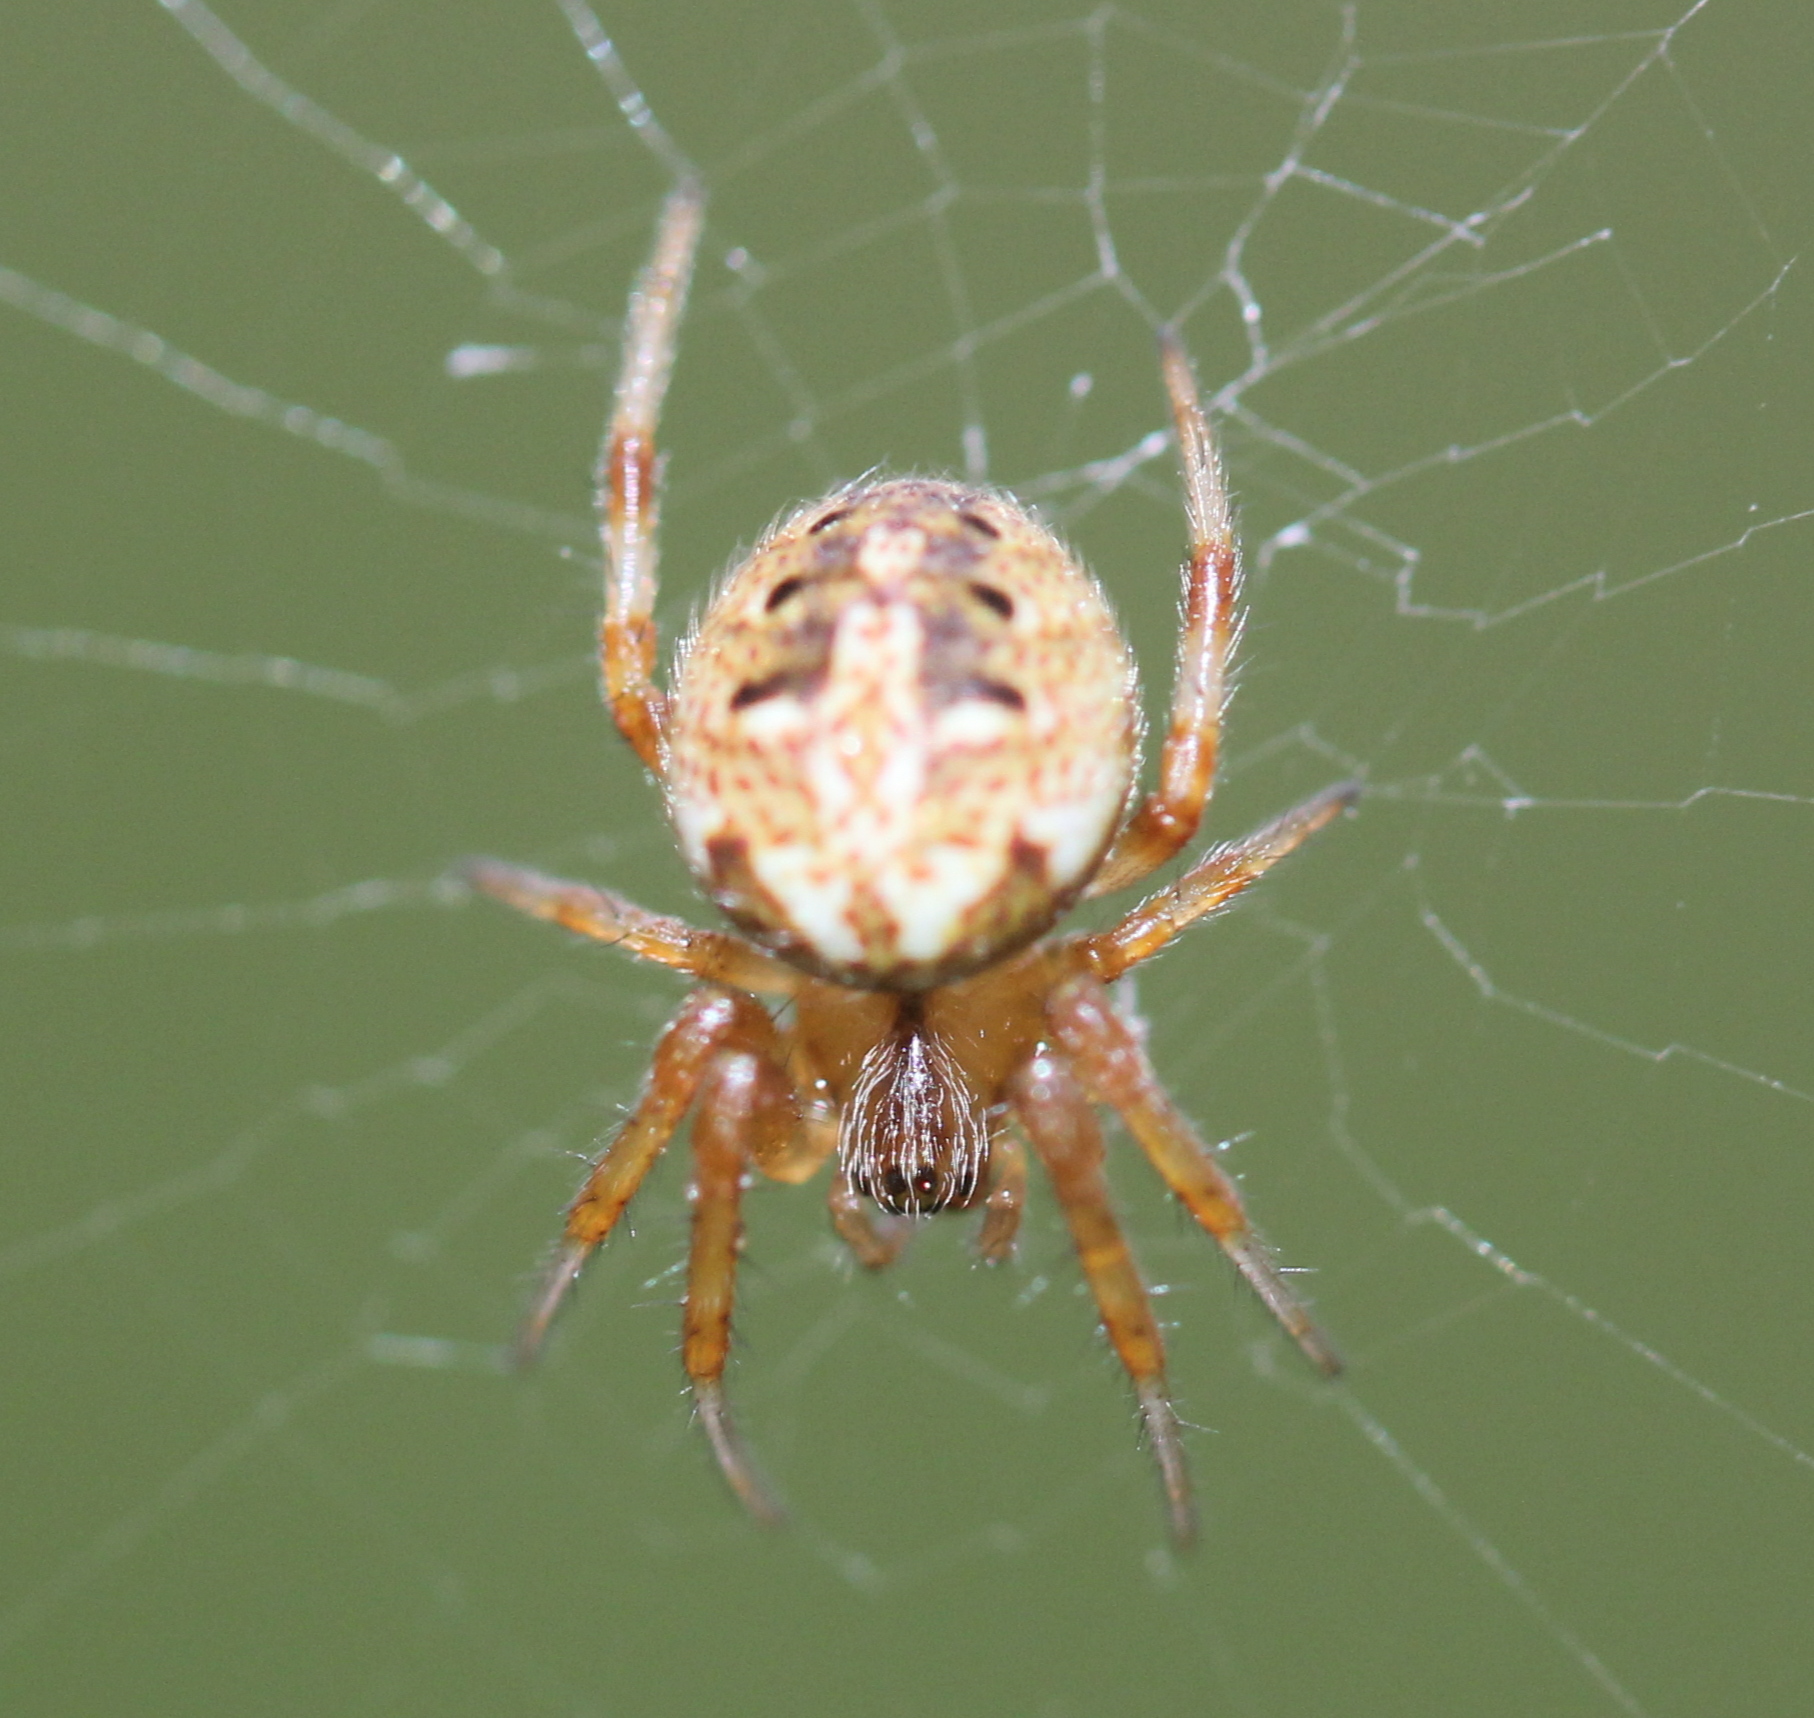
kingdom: Animalia
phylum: Arthropoda
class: Arachnida
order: Araneae
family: Araneidae
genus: Neoscona
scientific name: Neoscona arabesca
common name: Orb weavers
